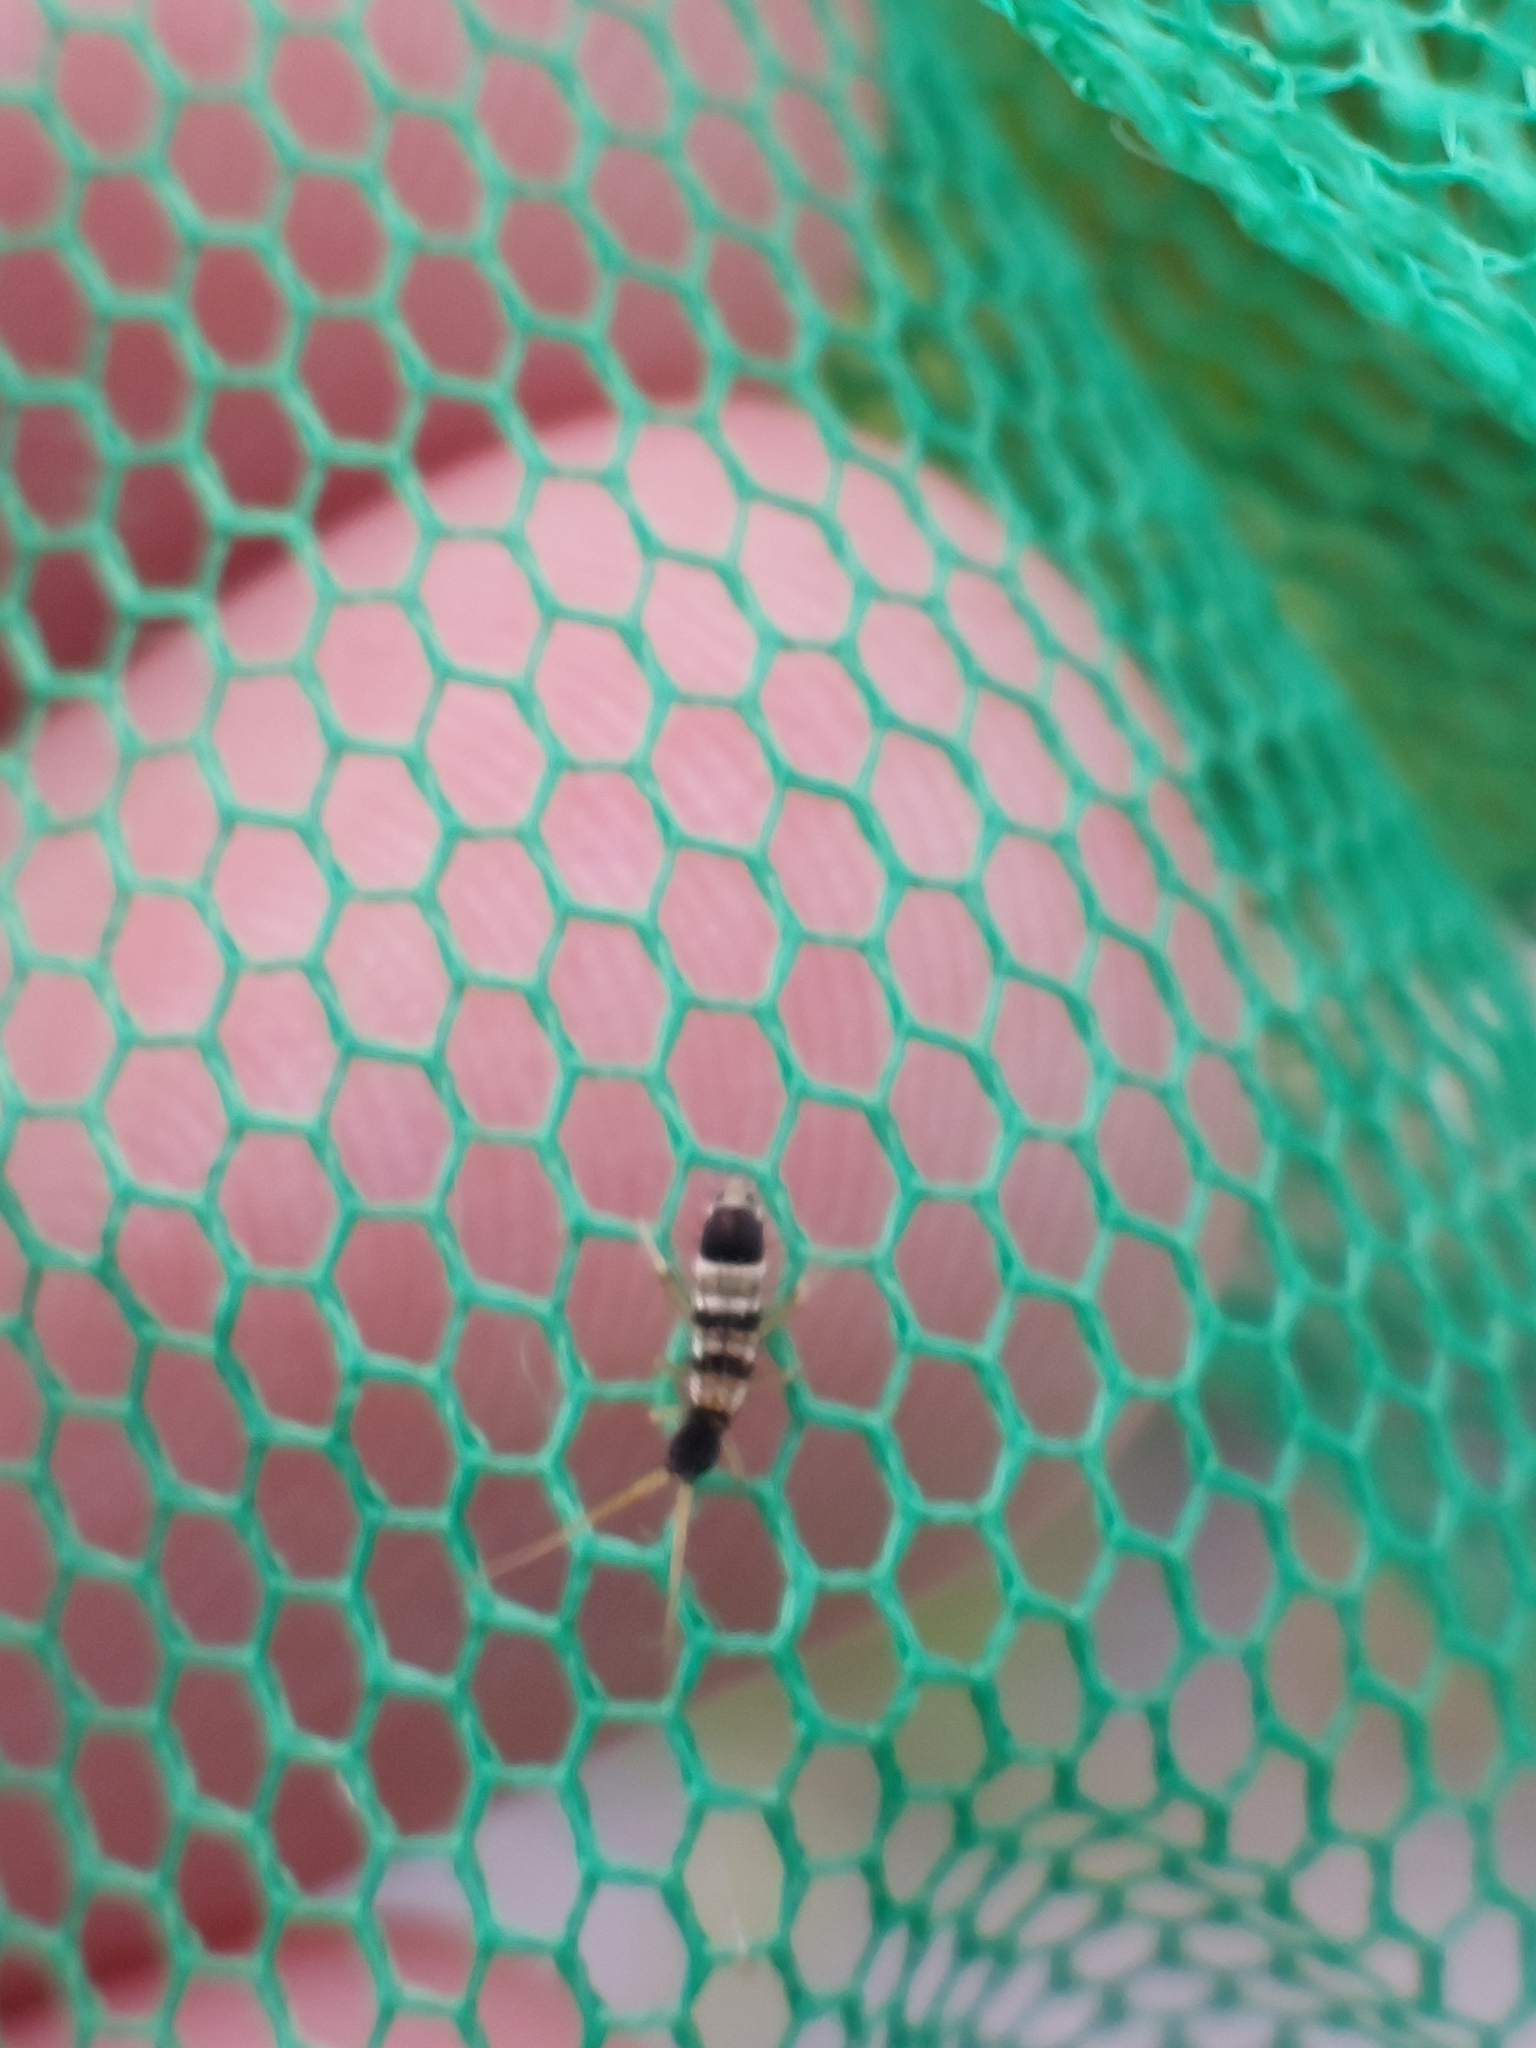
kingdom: Animalia
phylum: Arthropoda
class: Collembola
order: Entomobryomorpha
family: Orchesellidae
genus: Orchesella
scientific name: Orchesella spectabilis
